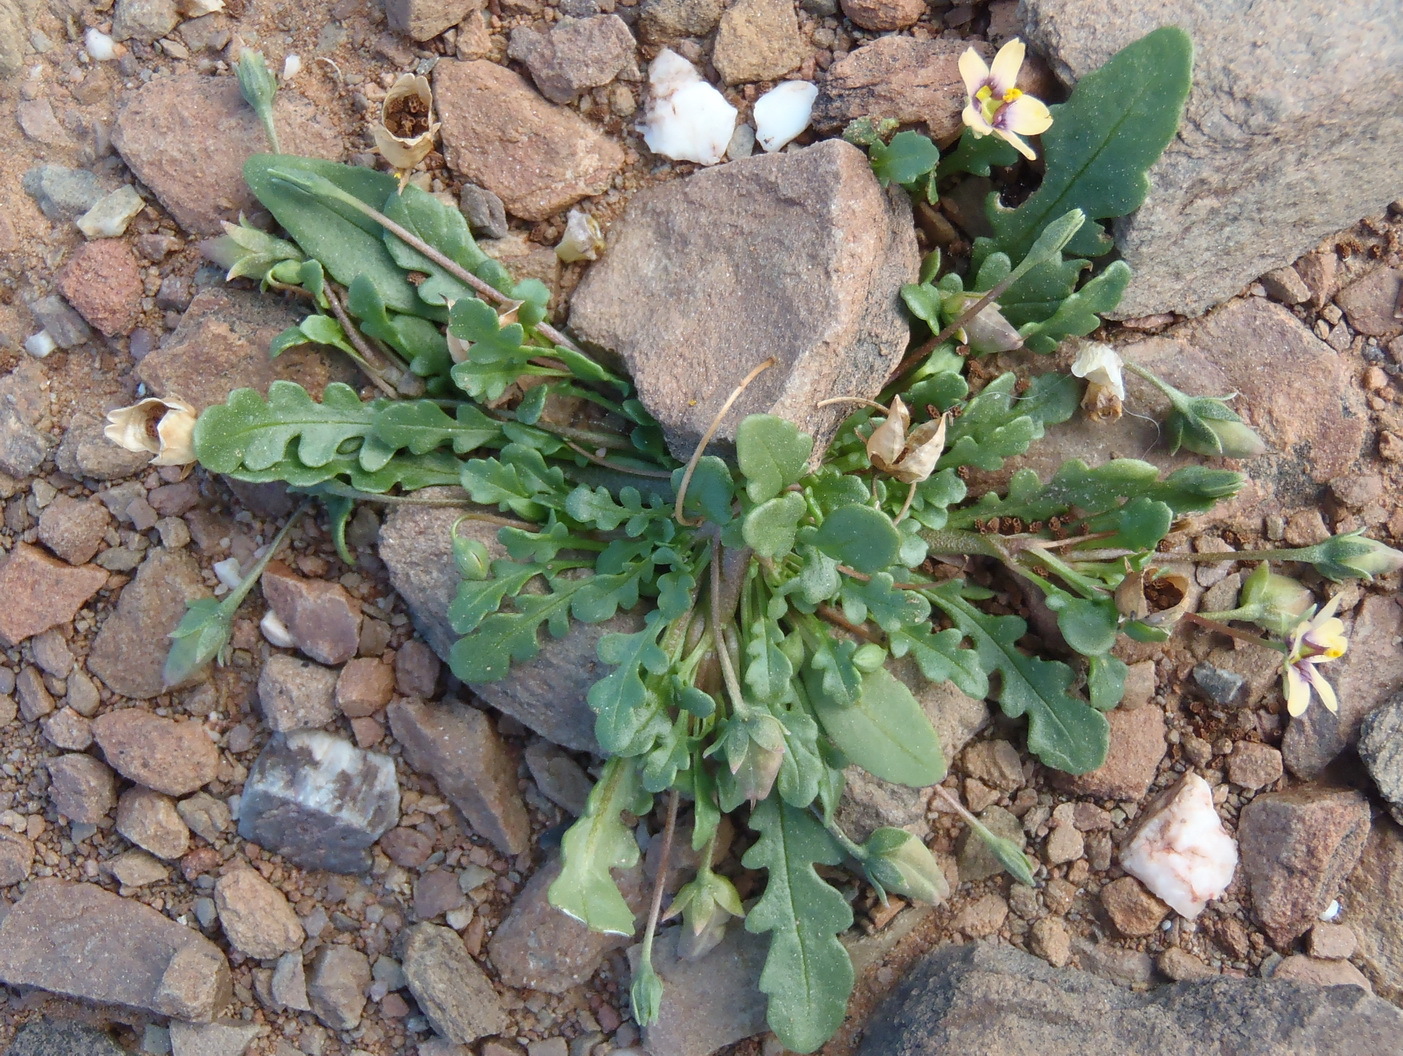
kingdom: Plantae
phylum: Tracheophyta
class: Magnoliopsida
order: Lamiales
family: Scrophulariaceae
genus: Diascia
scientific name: Diascia bicolor
